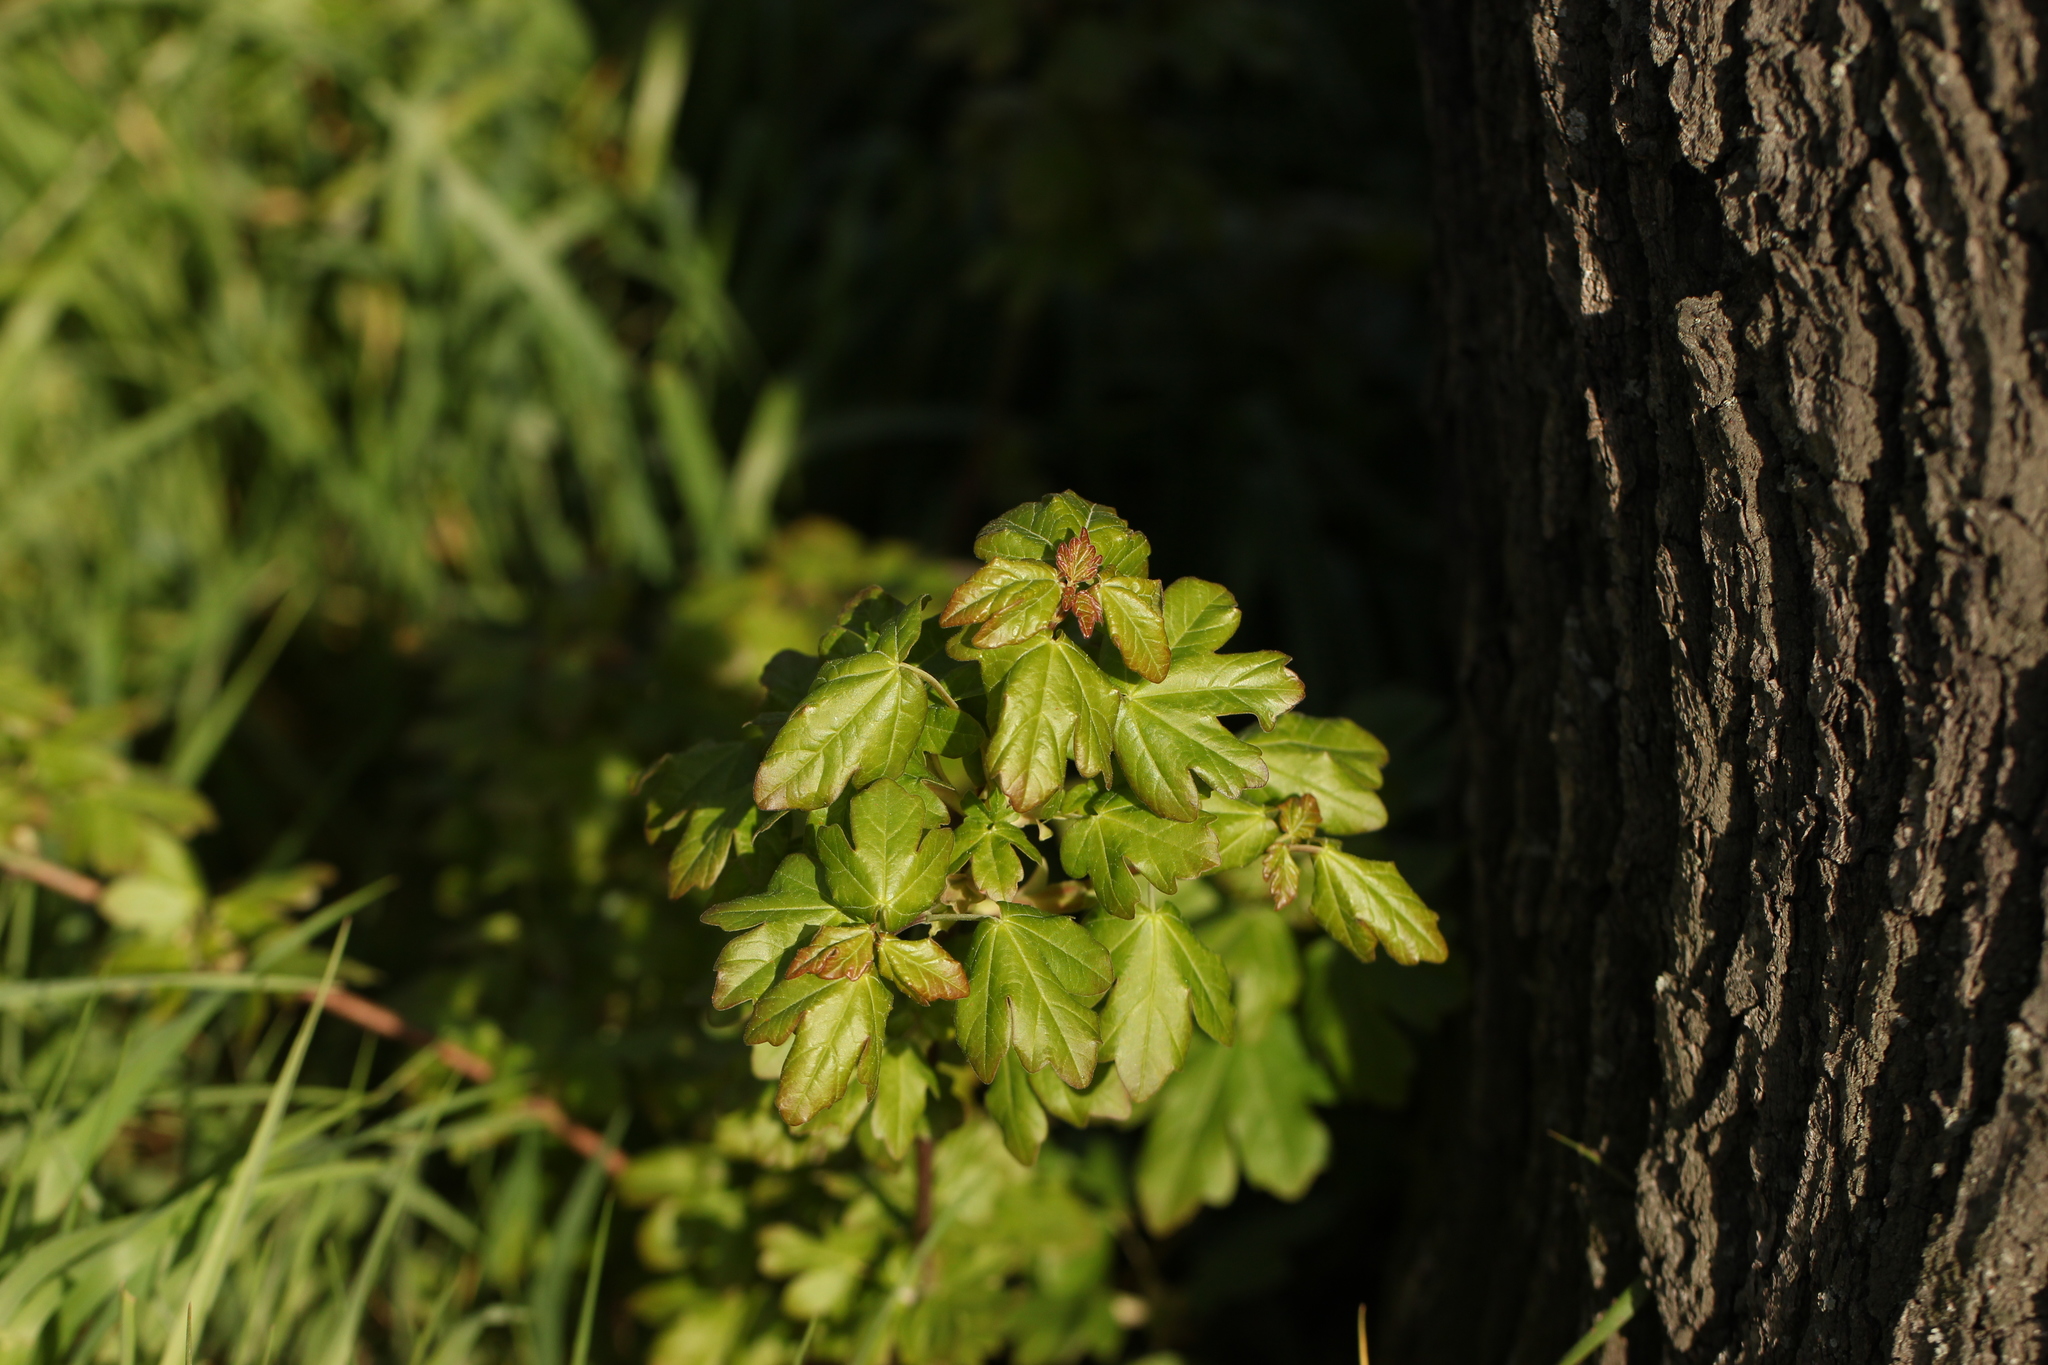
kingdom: Plantae
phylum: Tracheophyta
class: Magnoliopsida
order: Sapindales
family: Sapindaceae
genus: Acer
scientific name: Acer campestre
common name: Field maple
